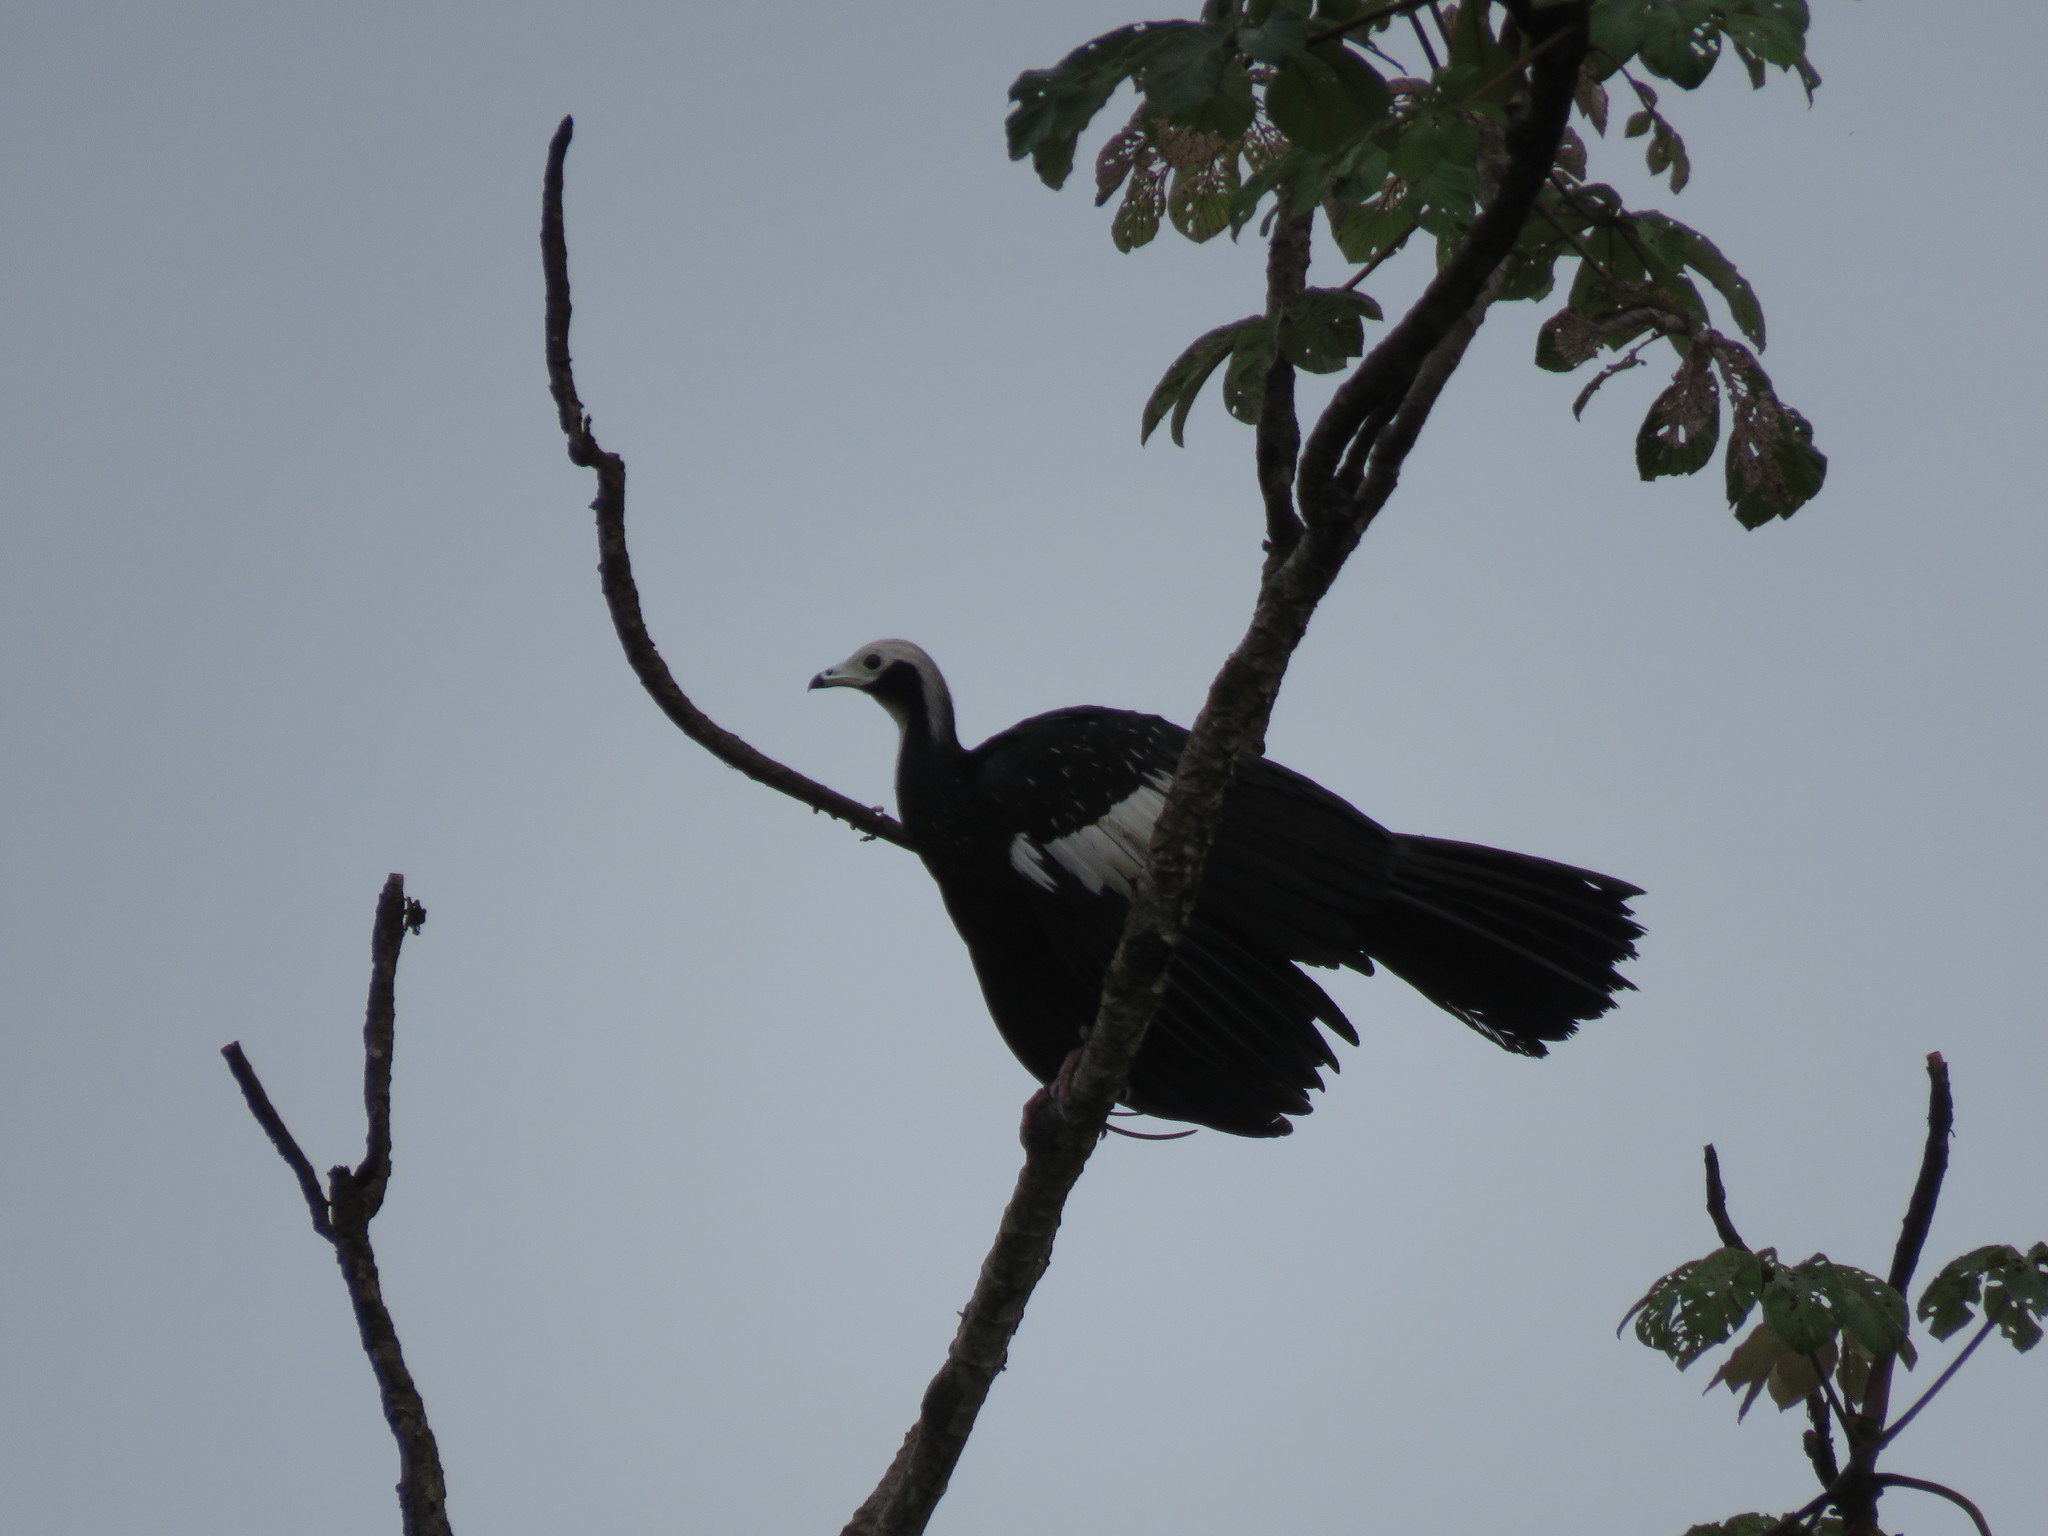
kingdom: Animalia
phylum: Chordata
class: Aves
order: Galliformes
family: Cracidae
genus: Pipile
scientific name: Pipile cumanensis
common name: Blue-throated piping-guan
